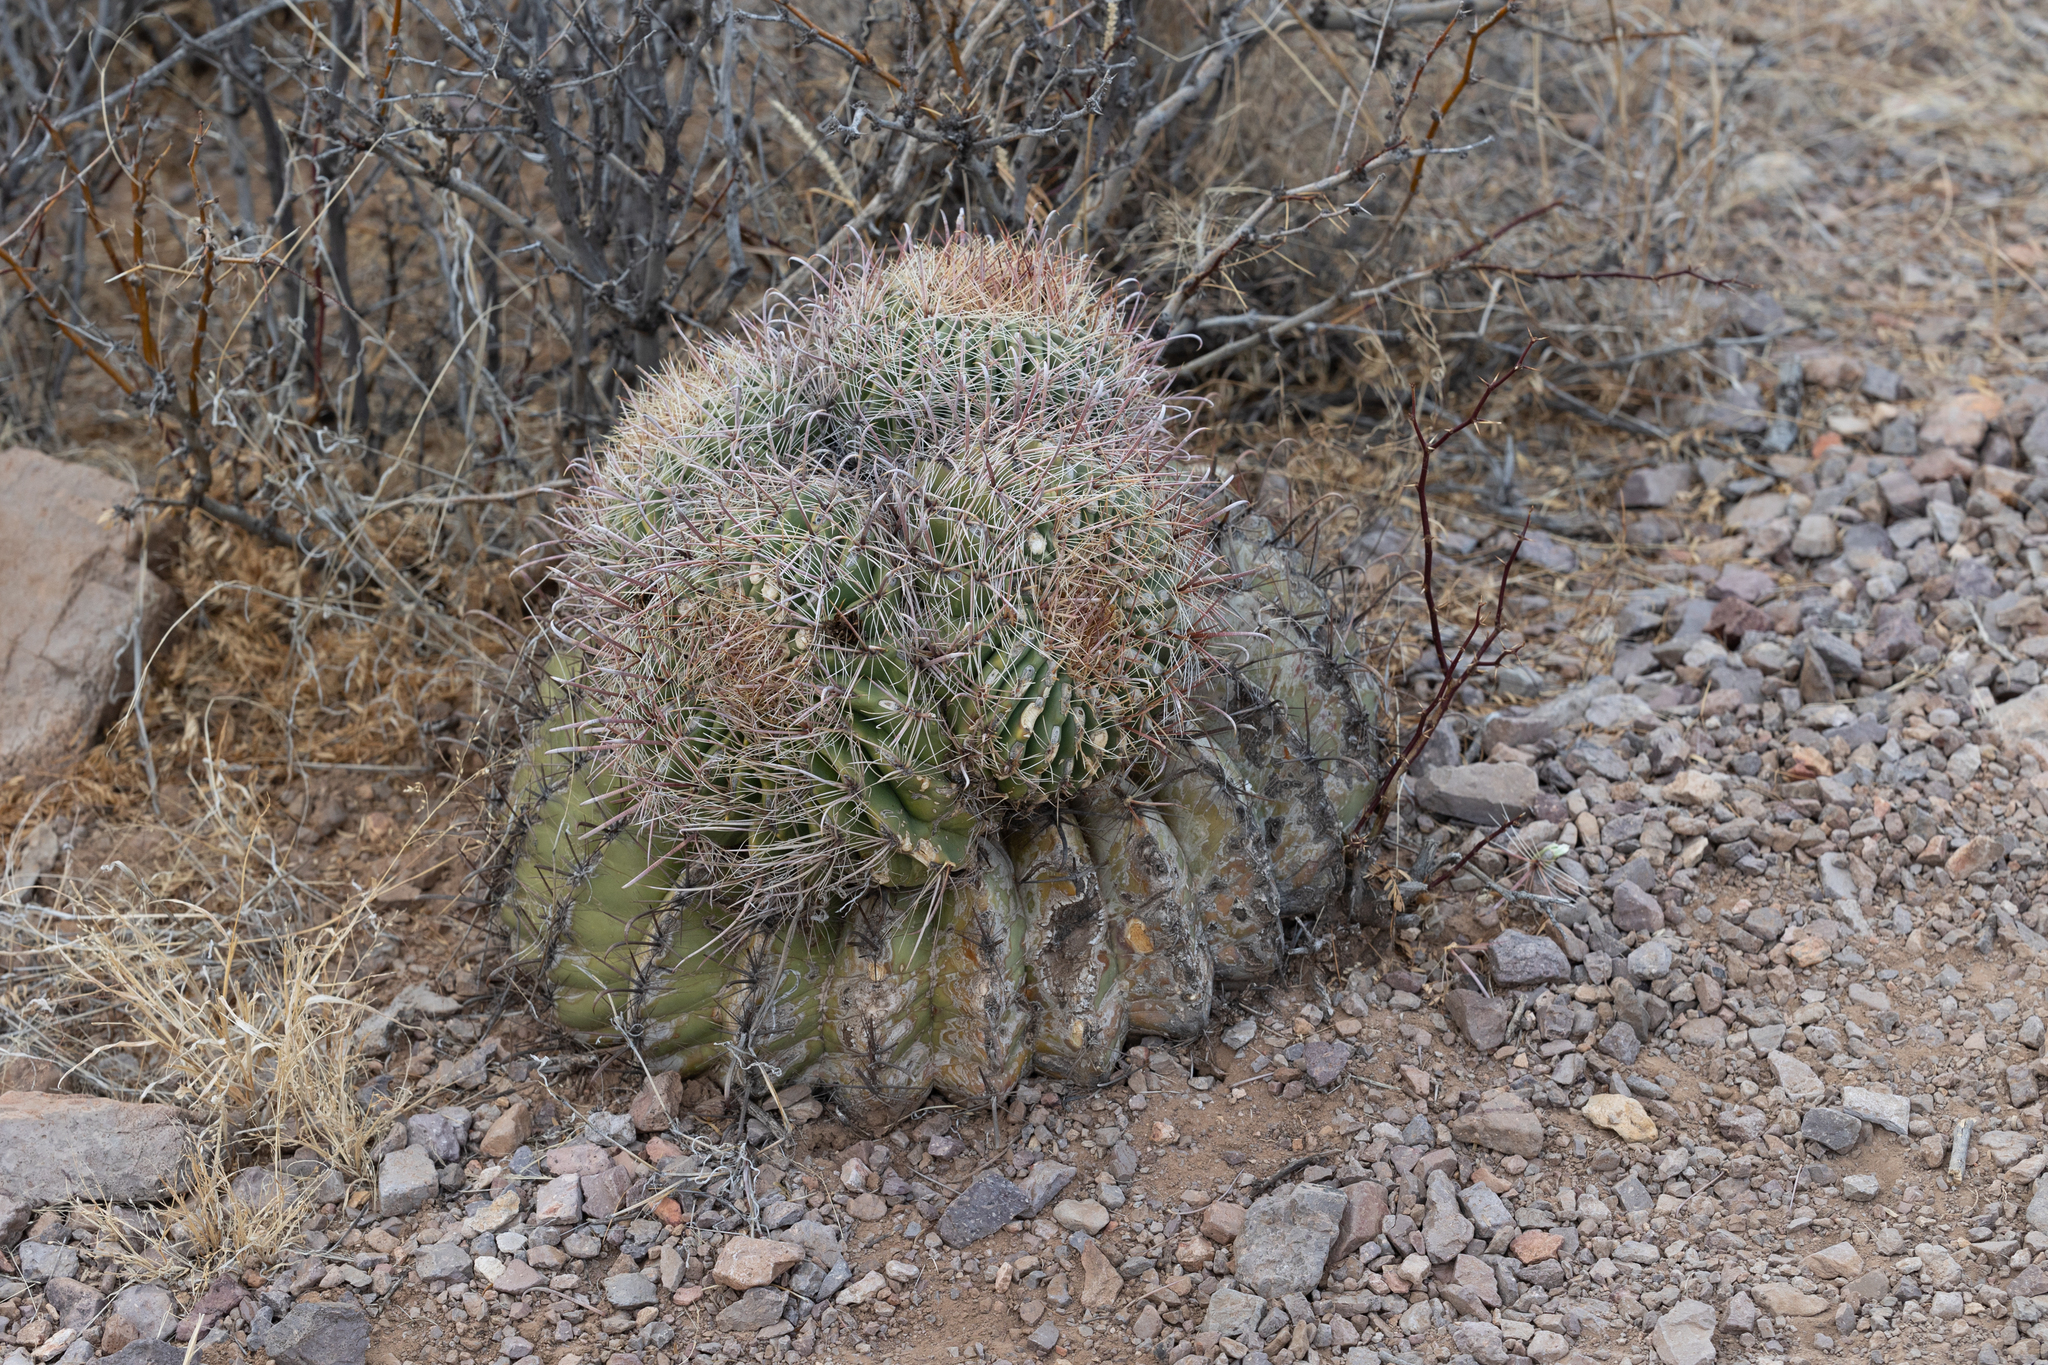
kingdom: Plantae
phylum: Tracheophyta
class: Magnoliopsida
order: Caryophyllales
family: Cactaceae
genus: Ferocactus
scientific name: Ferocactus wislizeni
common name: Candy barrel cactus
